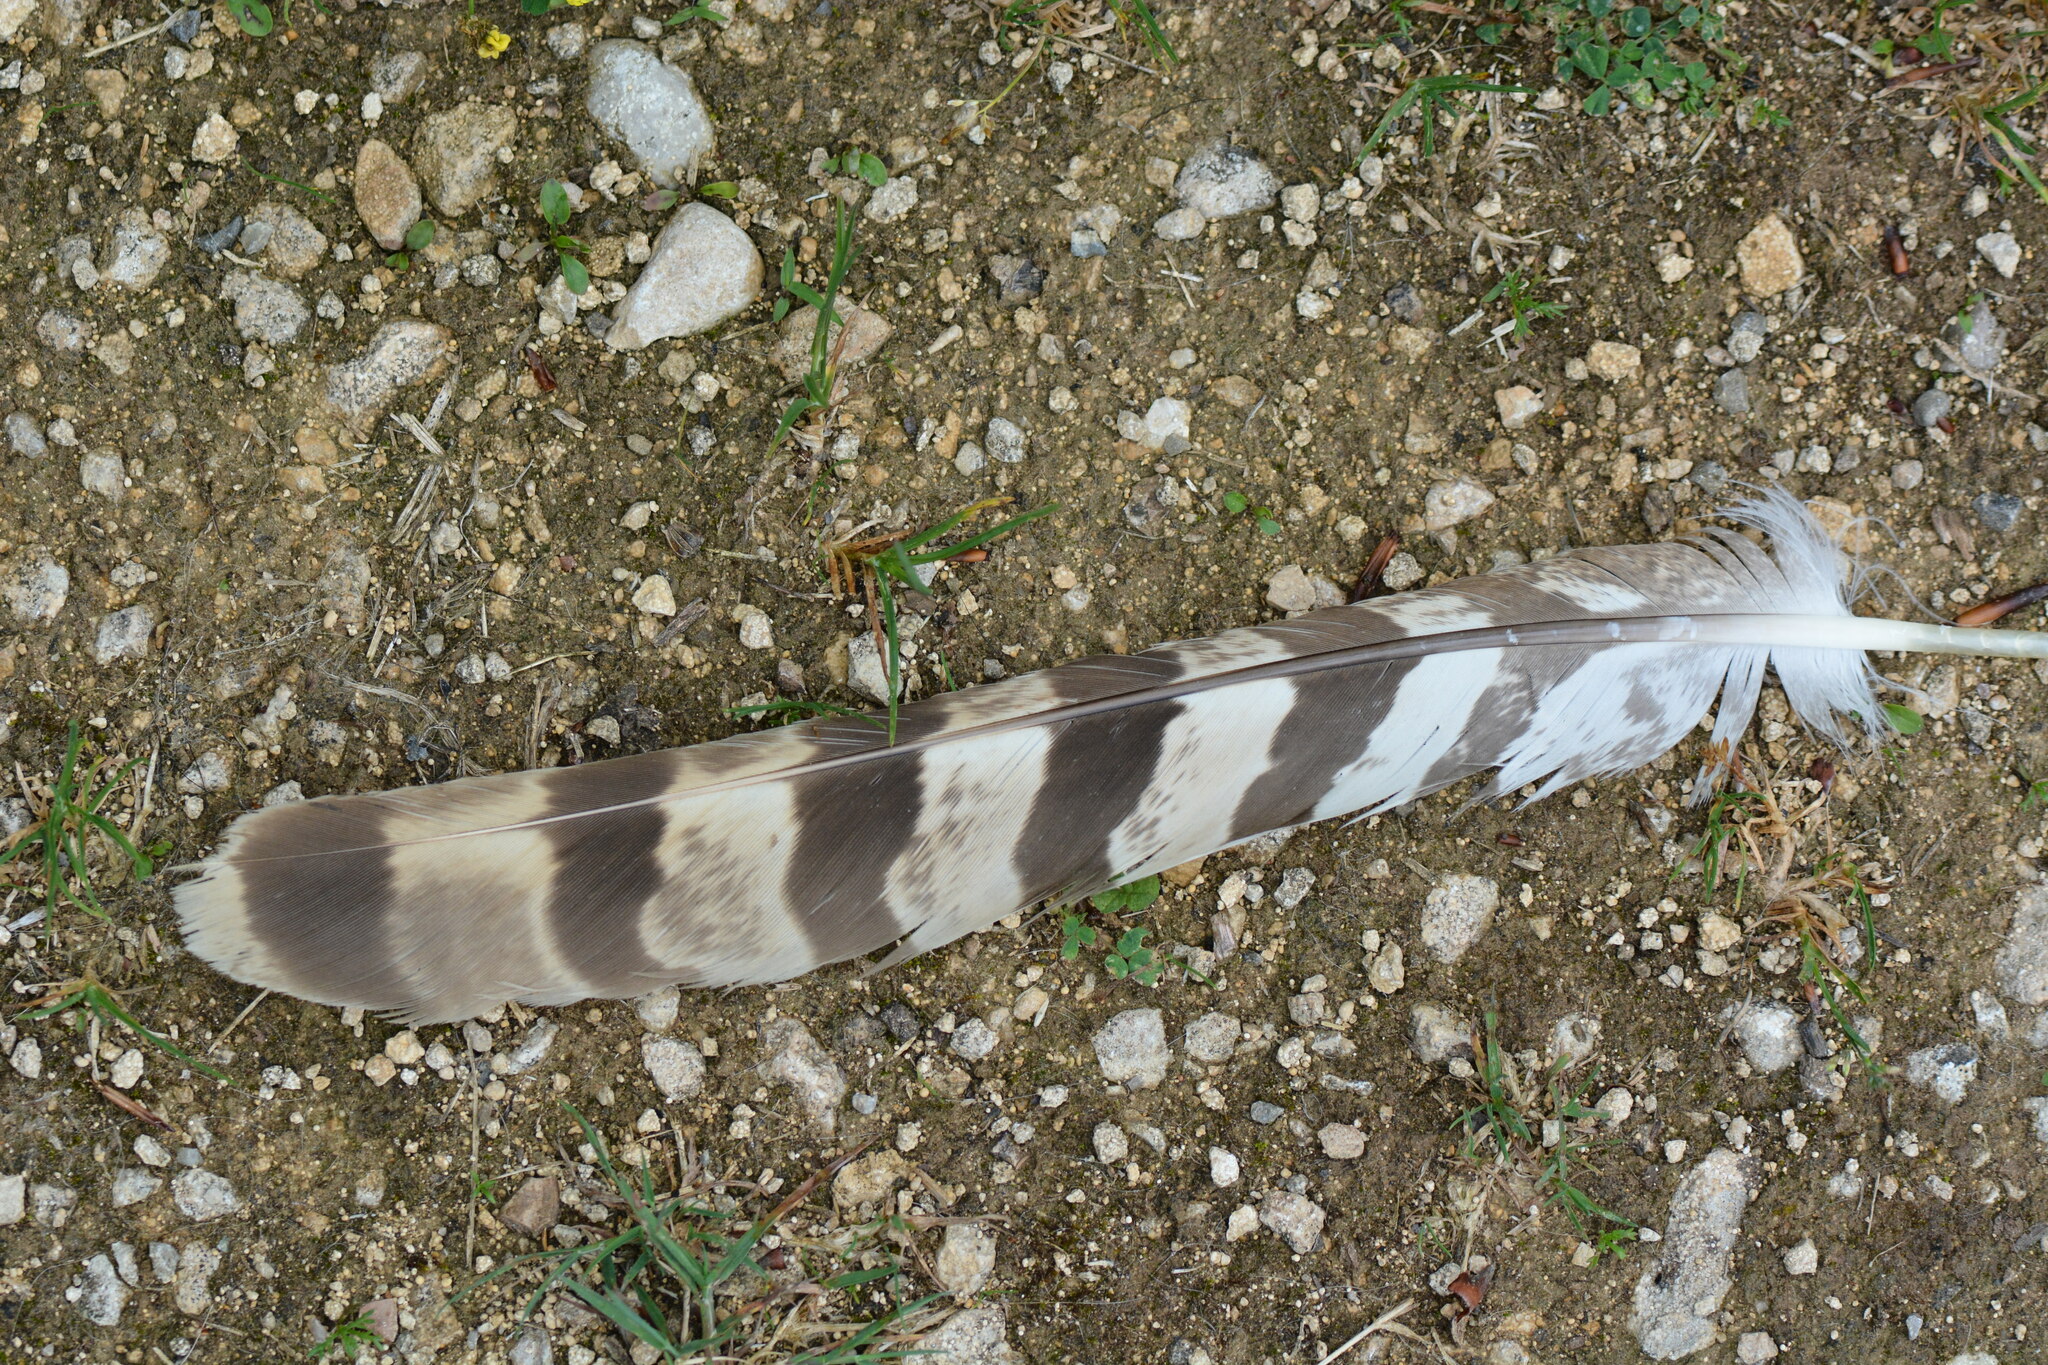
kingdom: Animalia
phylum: Chordata
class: Aves
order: Accipitriformes
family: Accipitridae
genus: Accipiter
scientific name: Accipiter gentilis
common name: Northern goshawk
